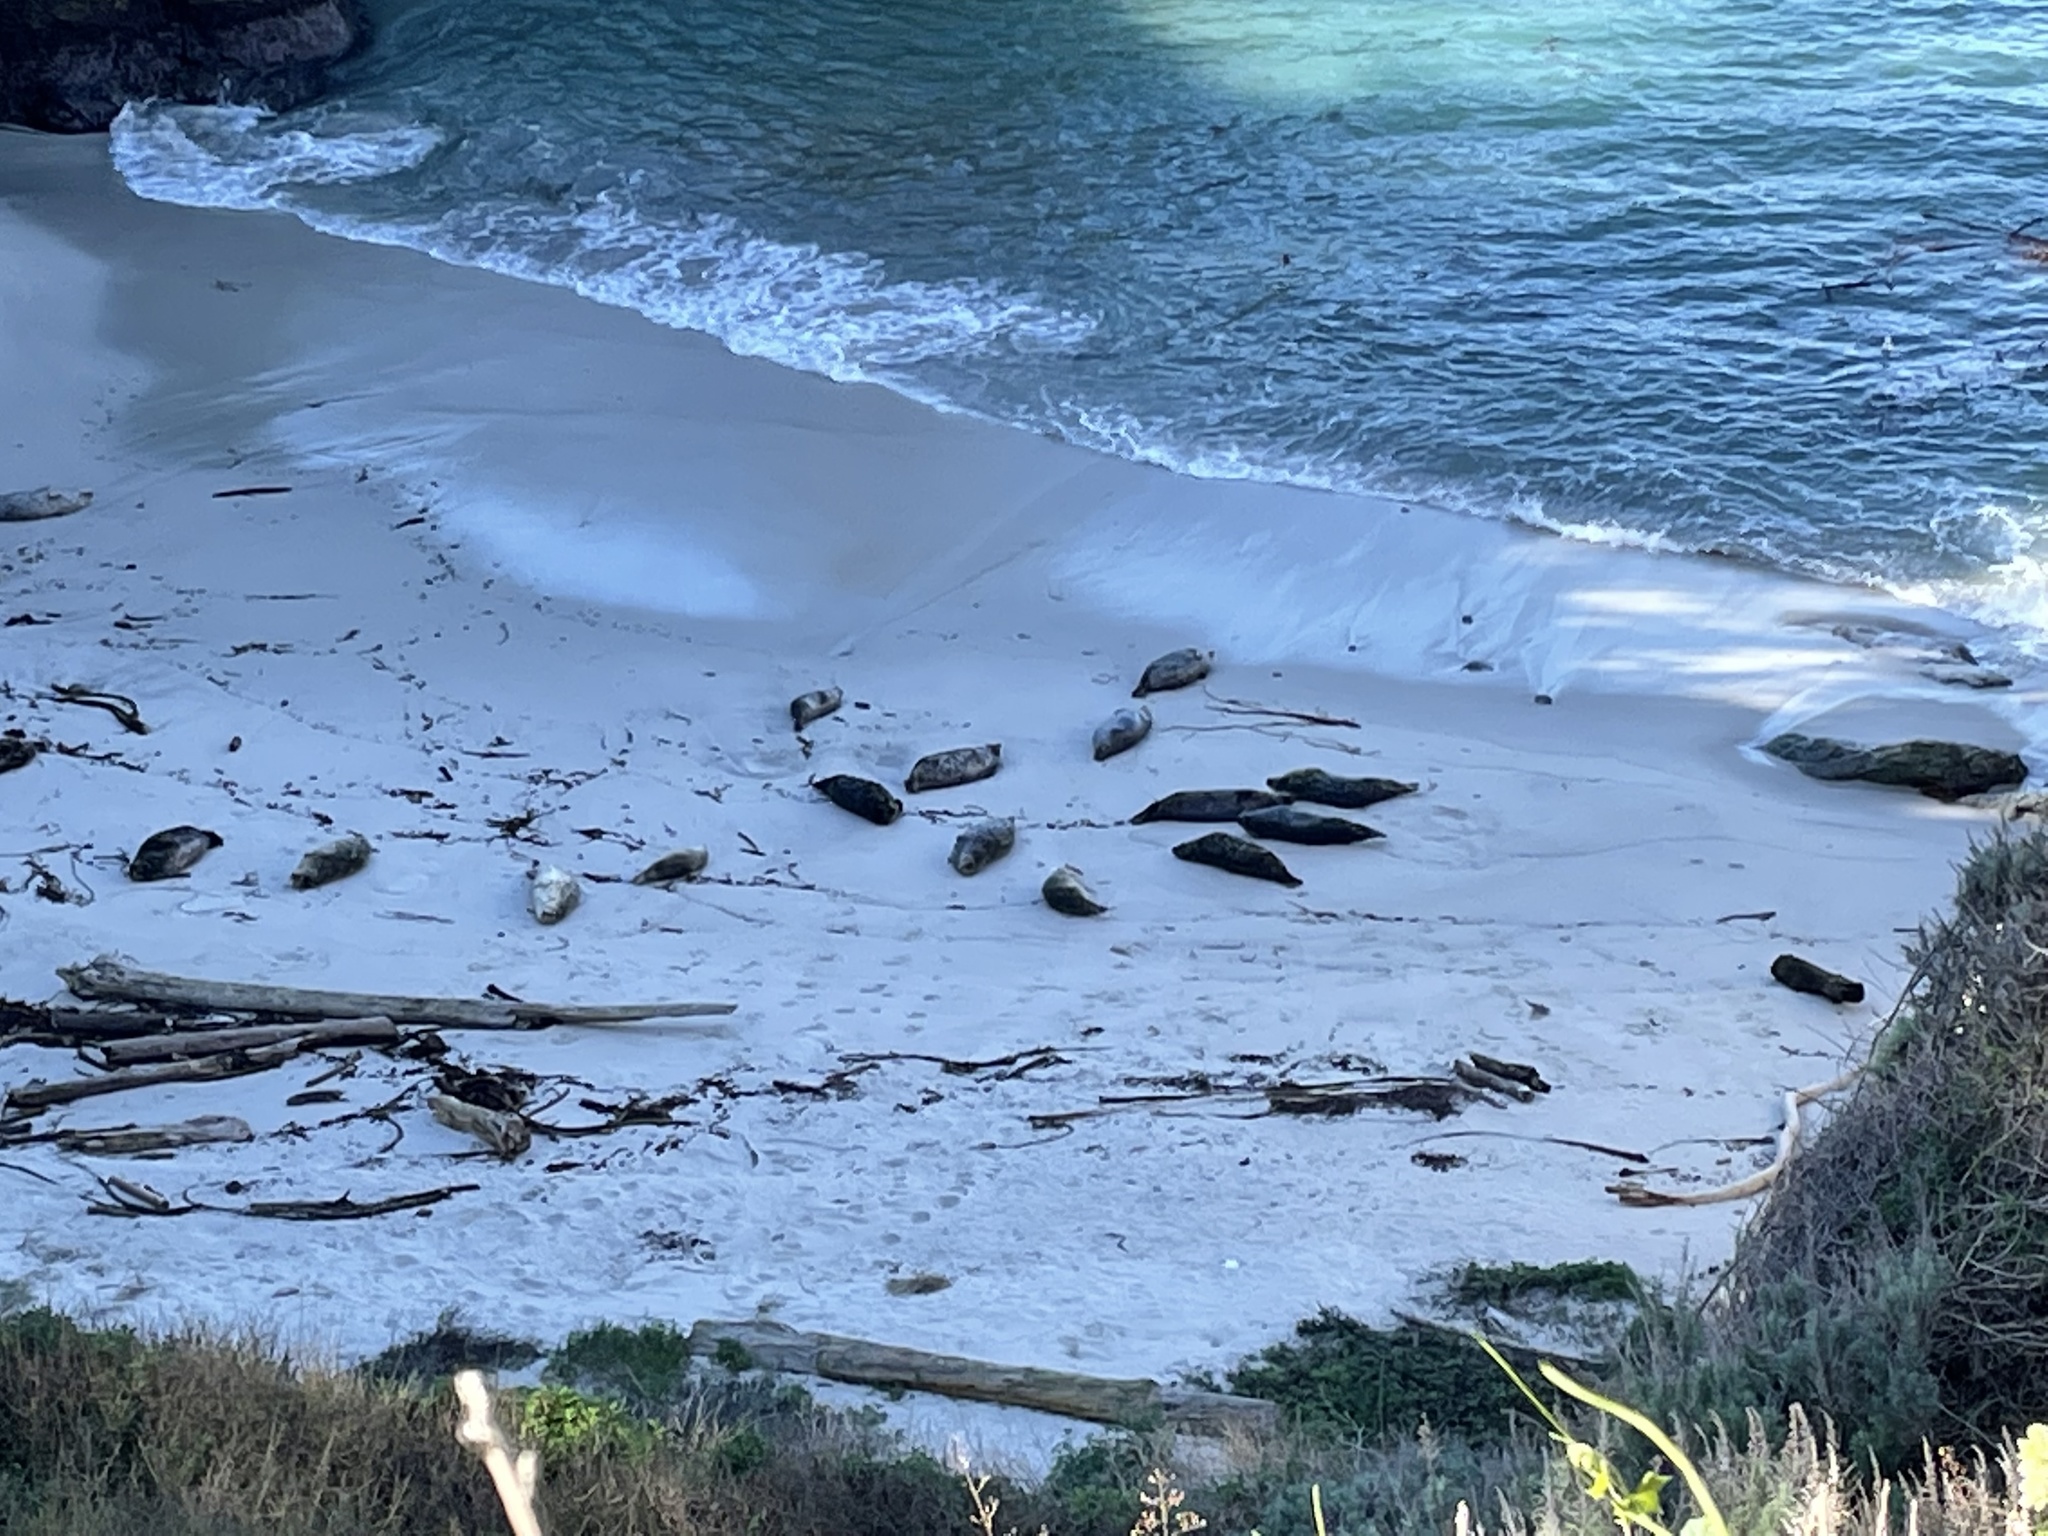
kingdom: Animalia
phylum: Chordata
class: Mammalia
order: Carnivora
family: Phocidae
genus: Phoca
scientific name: Phoca vitulina
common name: Harbor seal
